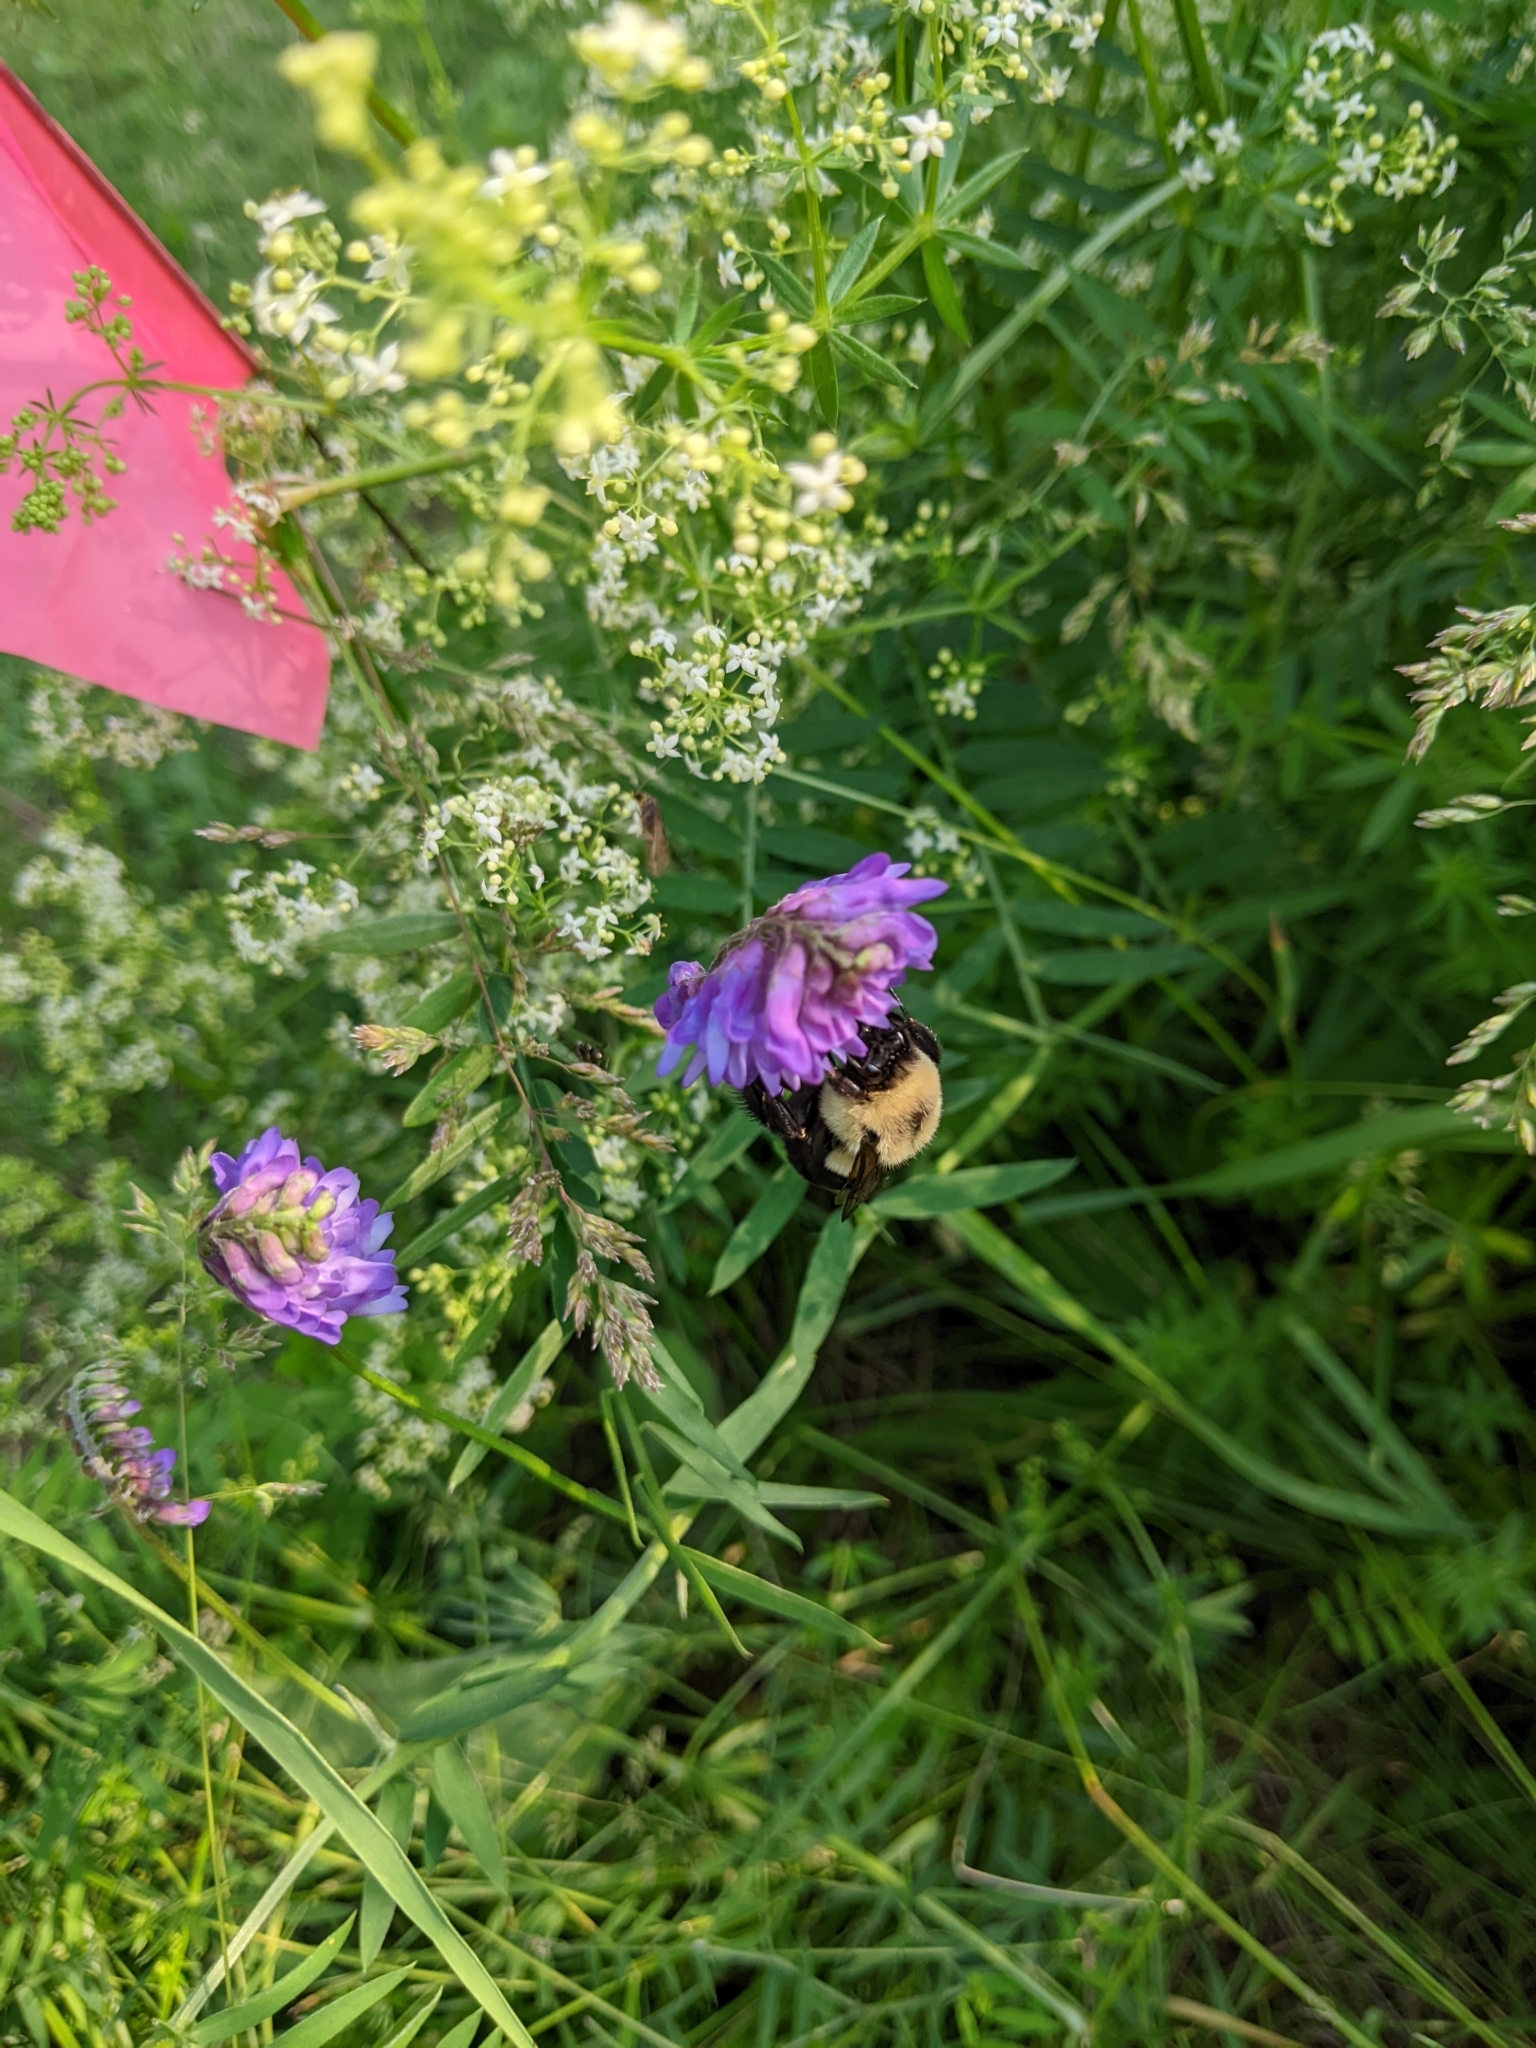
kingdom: Animalia
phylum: Arthropoda
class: Insecta
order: Hymenoptera
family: Apidae
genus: Bombus
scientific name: Bombus impatiens
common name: Common eastern bumble bee
